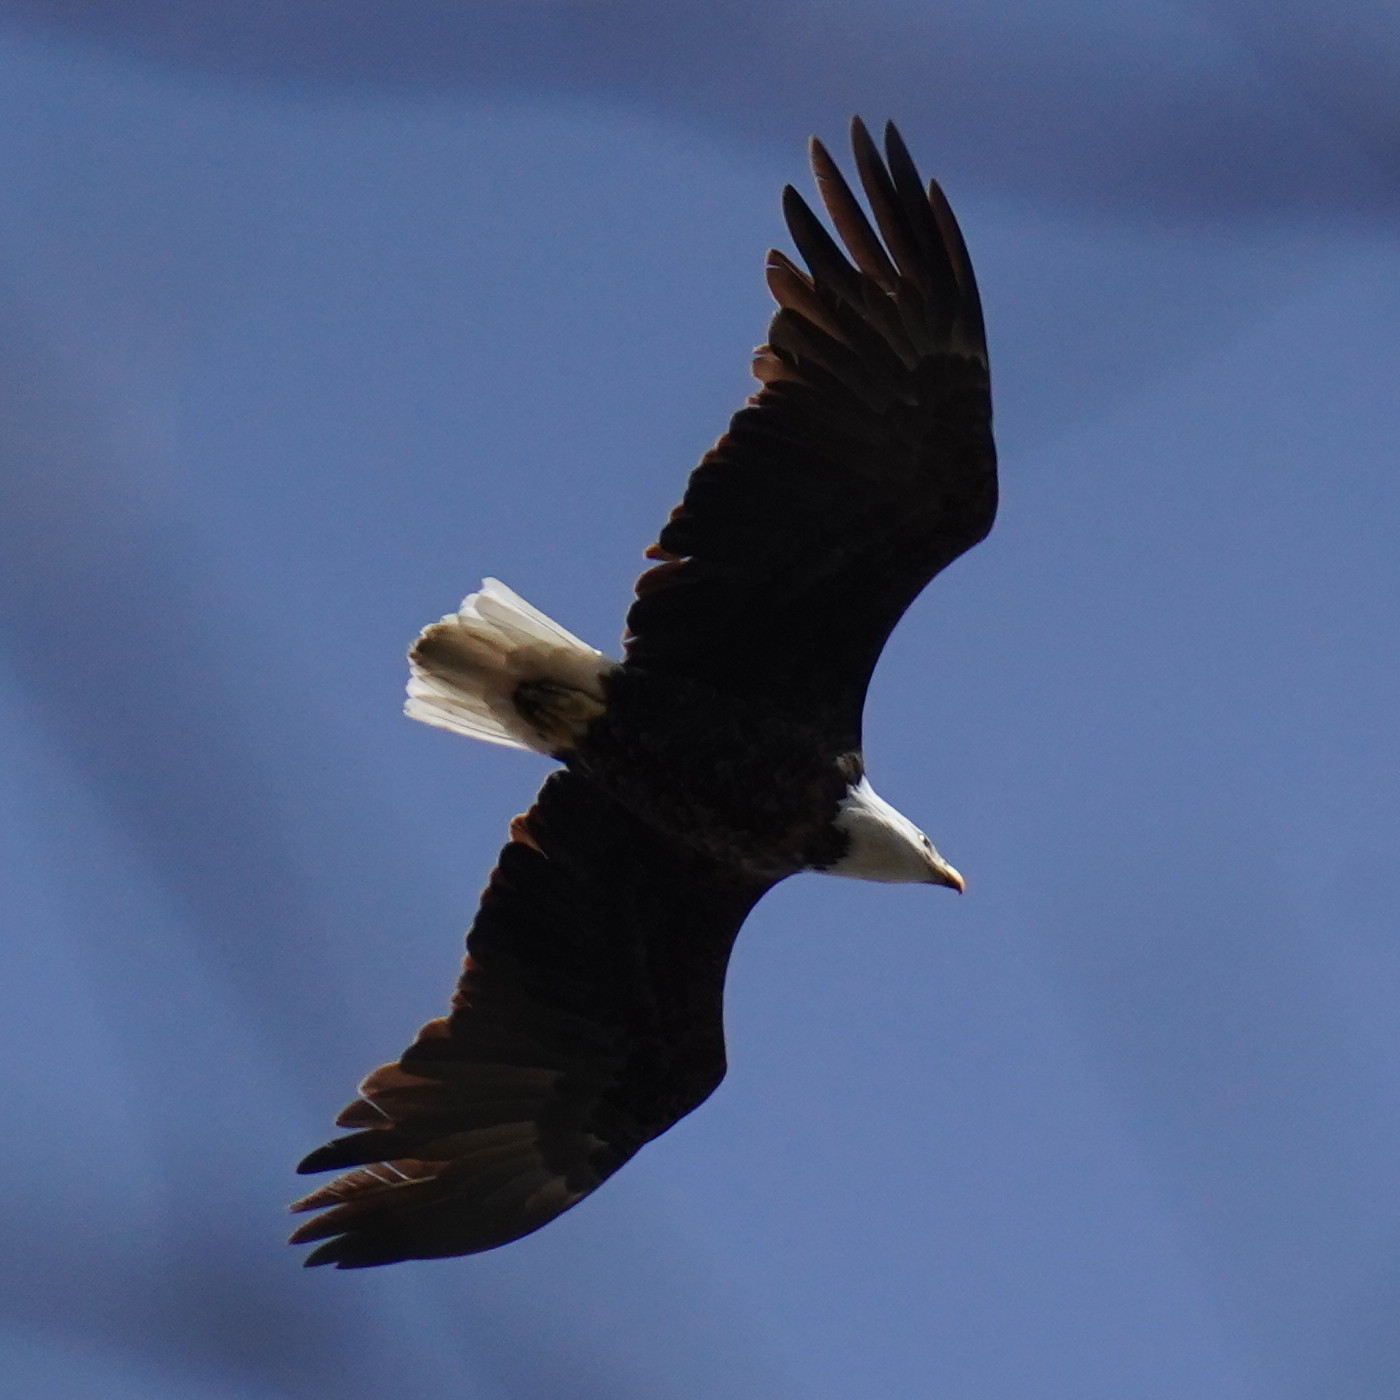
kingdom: Animalia
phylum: Chordata
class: Aves
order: Accipitriformes
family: Accipitridae
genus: Haliaeetus
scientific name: Haliaeetus leucocephalus
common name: Bald eagle
